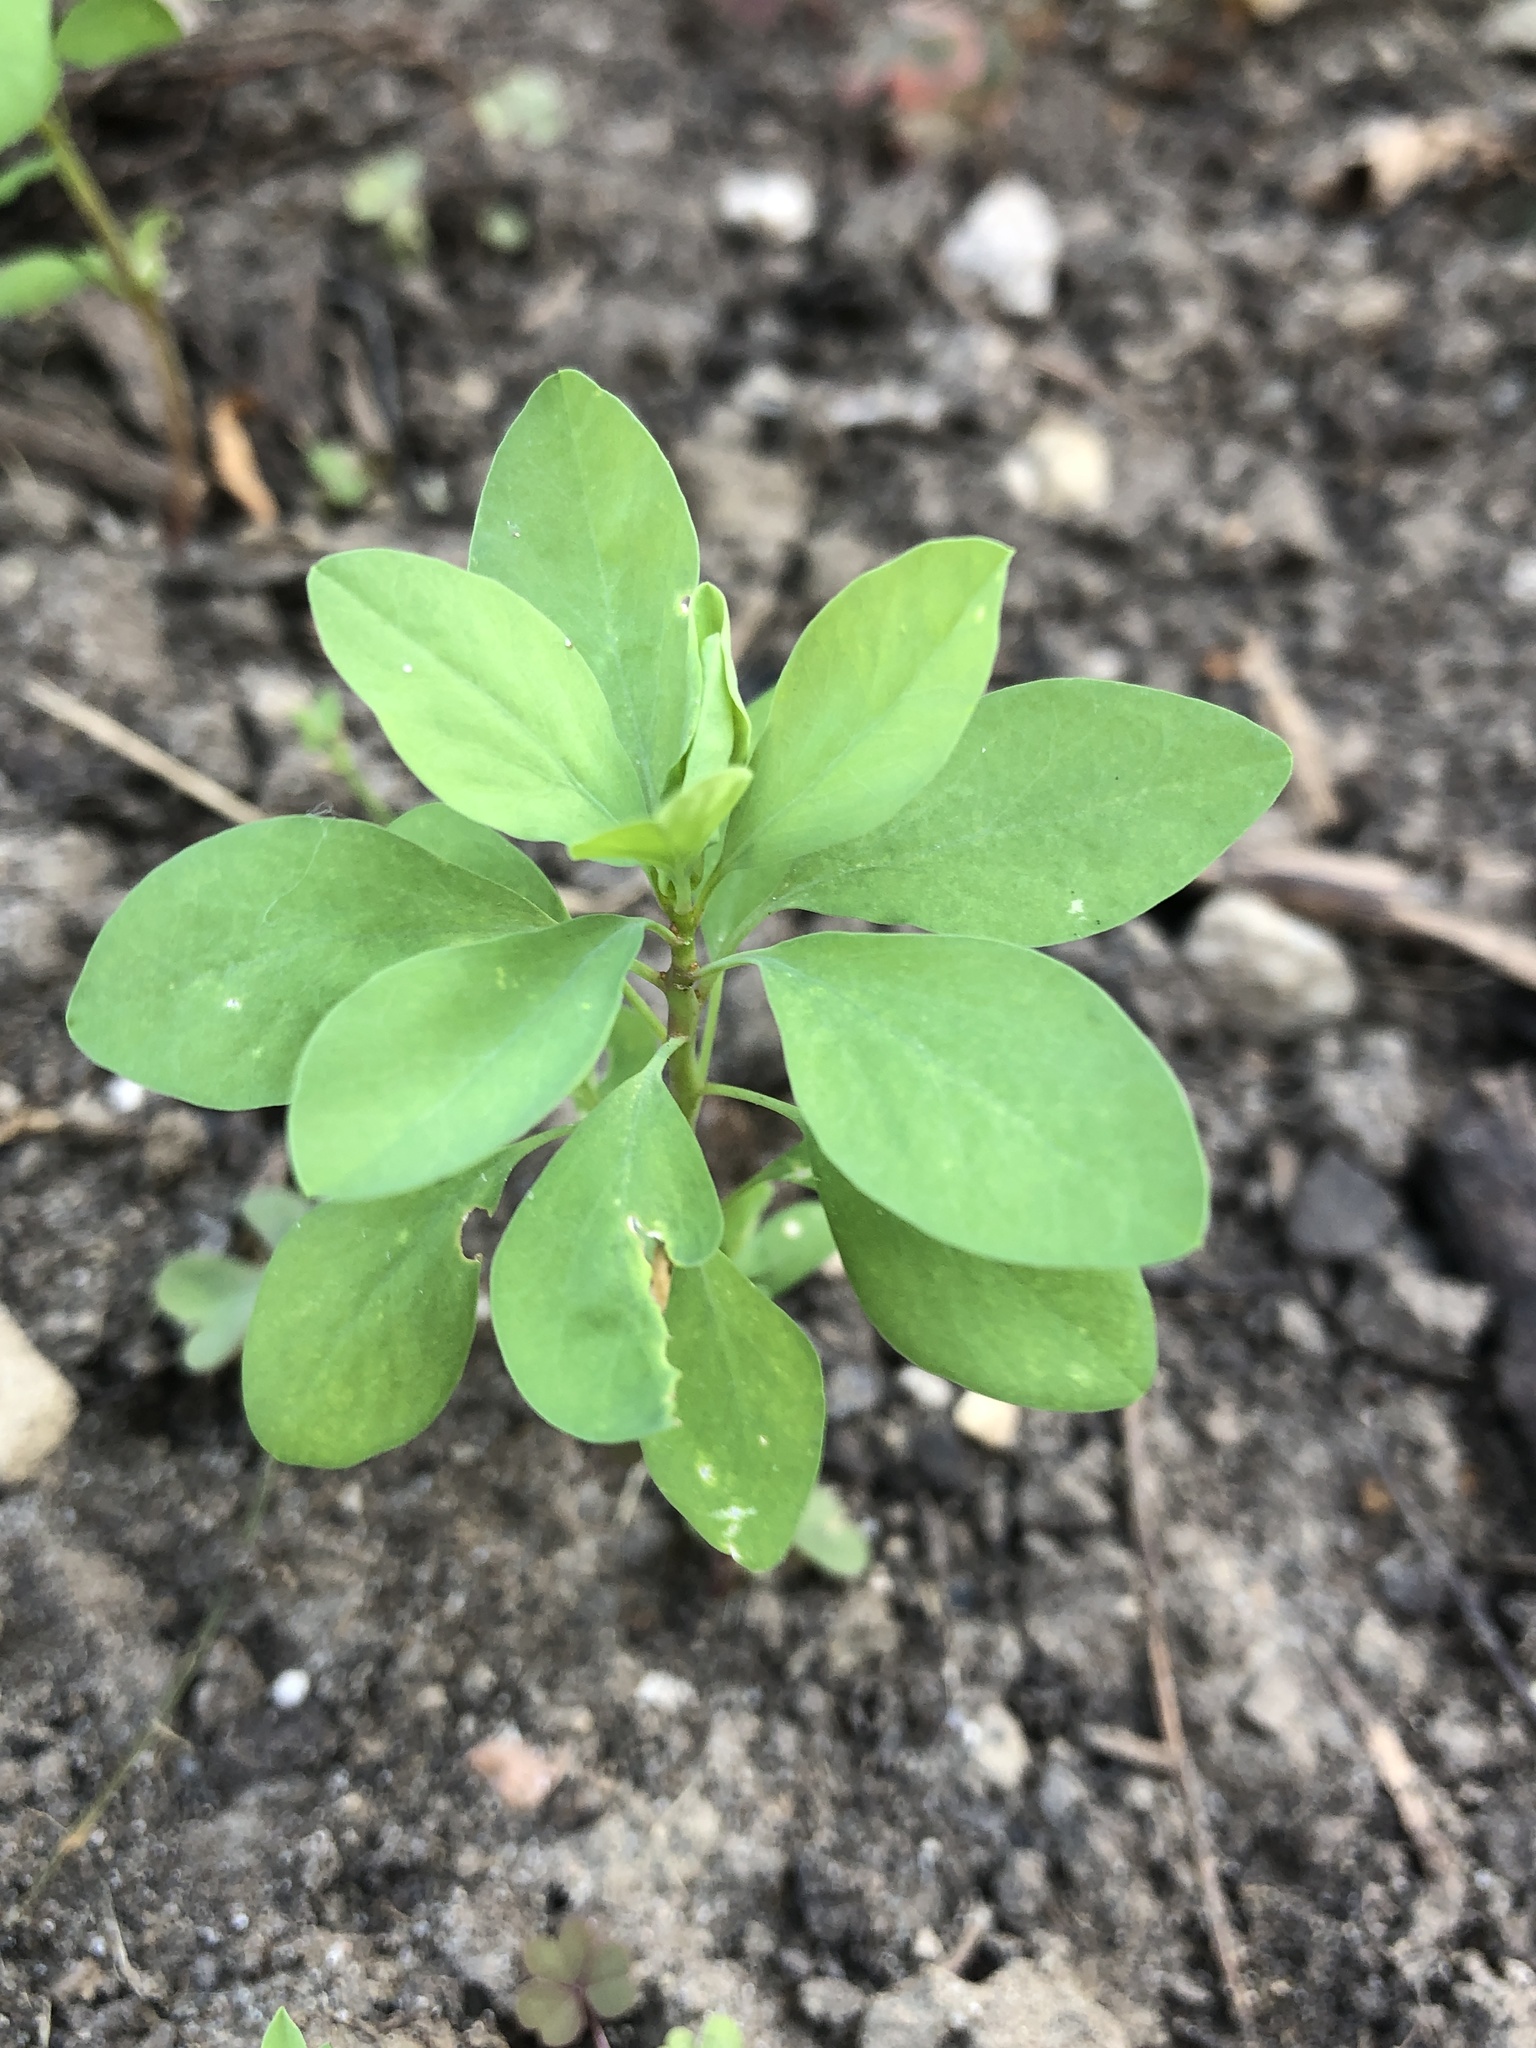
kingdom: Plantae
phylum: Tracheophyta
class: Magnoliopsida
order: Malpighiales
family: Euphorbiaceae
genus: Euphorbia
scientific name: Euphorbia peplus
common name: Petty spurge
